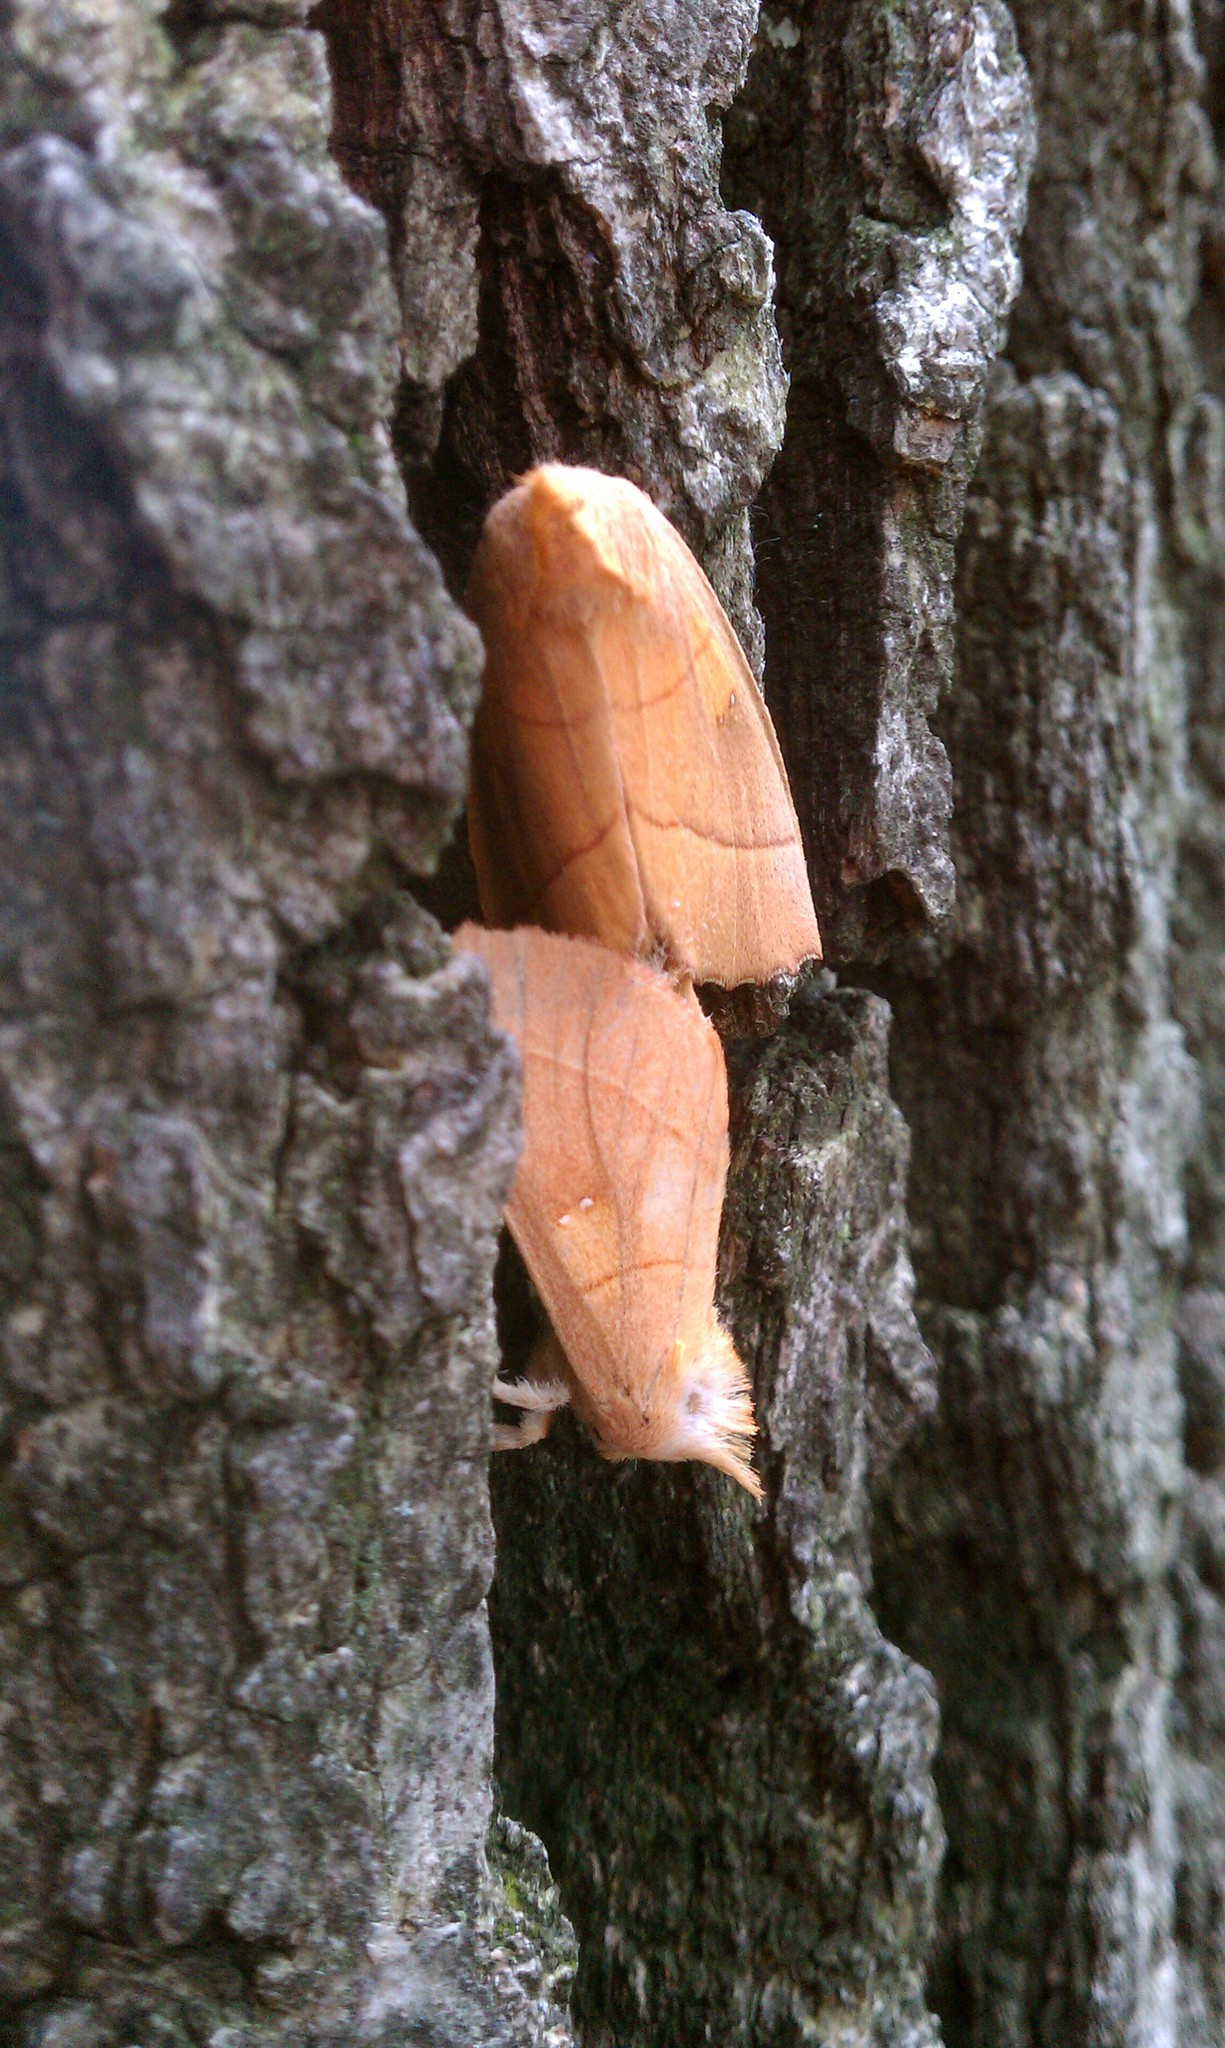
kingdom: Animalia
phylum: Arthropoda
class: Insecta
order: Lepidoptera
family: Notodontidae
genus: Nadata
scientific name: Nadata gibbosa
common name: White-dotted prominent
